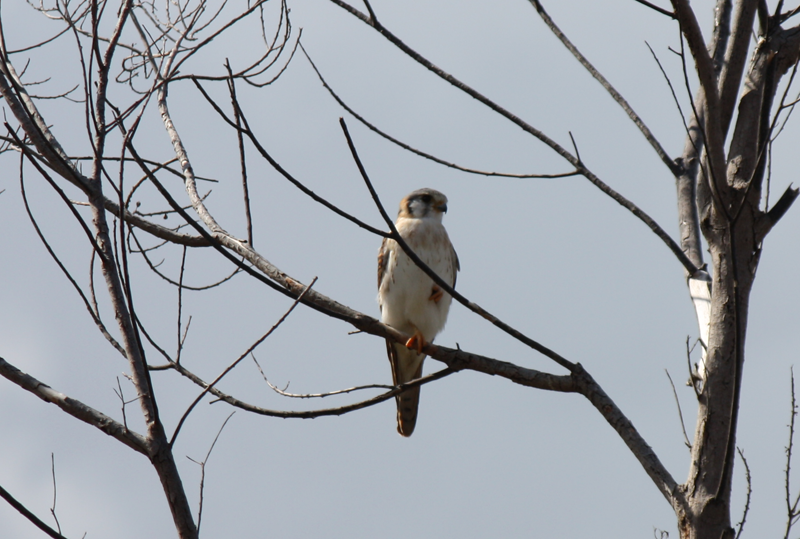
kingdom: Animalia
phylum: Chordata
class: Aves
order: Falconiformes
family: Falconidae
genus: Falco
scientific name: Falco sparverius
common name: American kestrel
